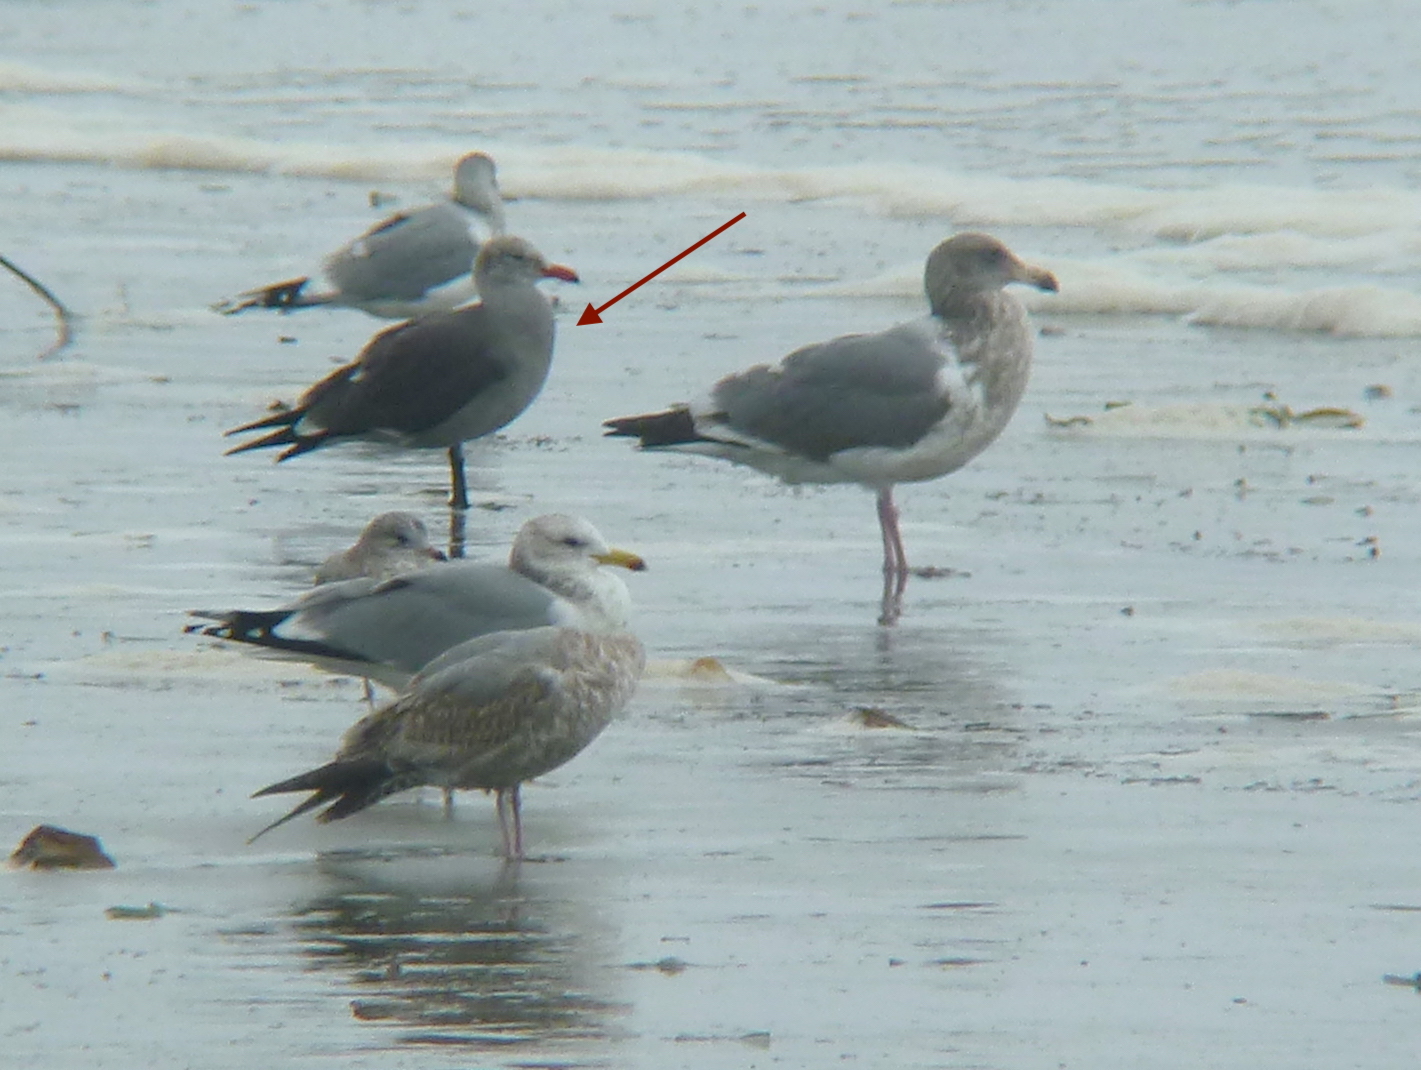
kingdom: Animalia
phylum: Chordata
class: Aves
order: Charadriiformes
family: Laridae
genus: Larus
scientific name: Larus heermanni
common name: Heermann's gull
